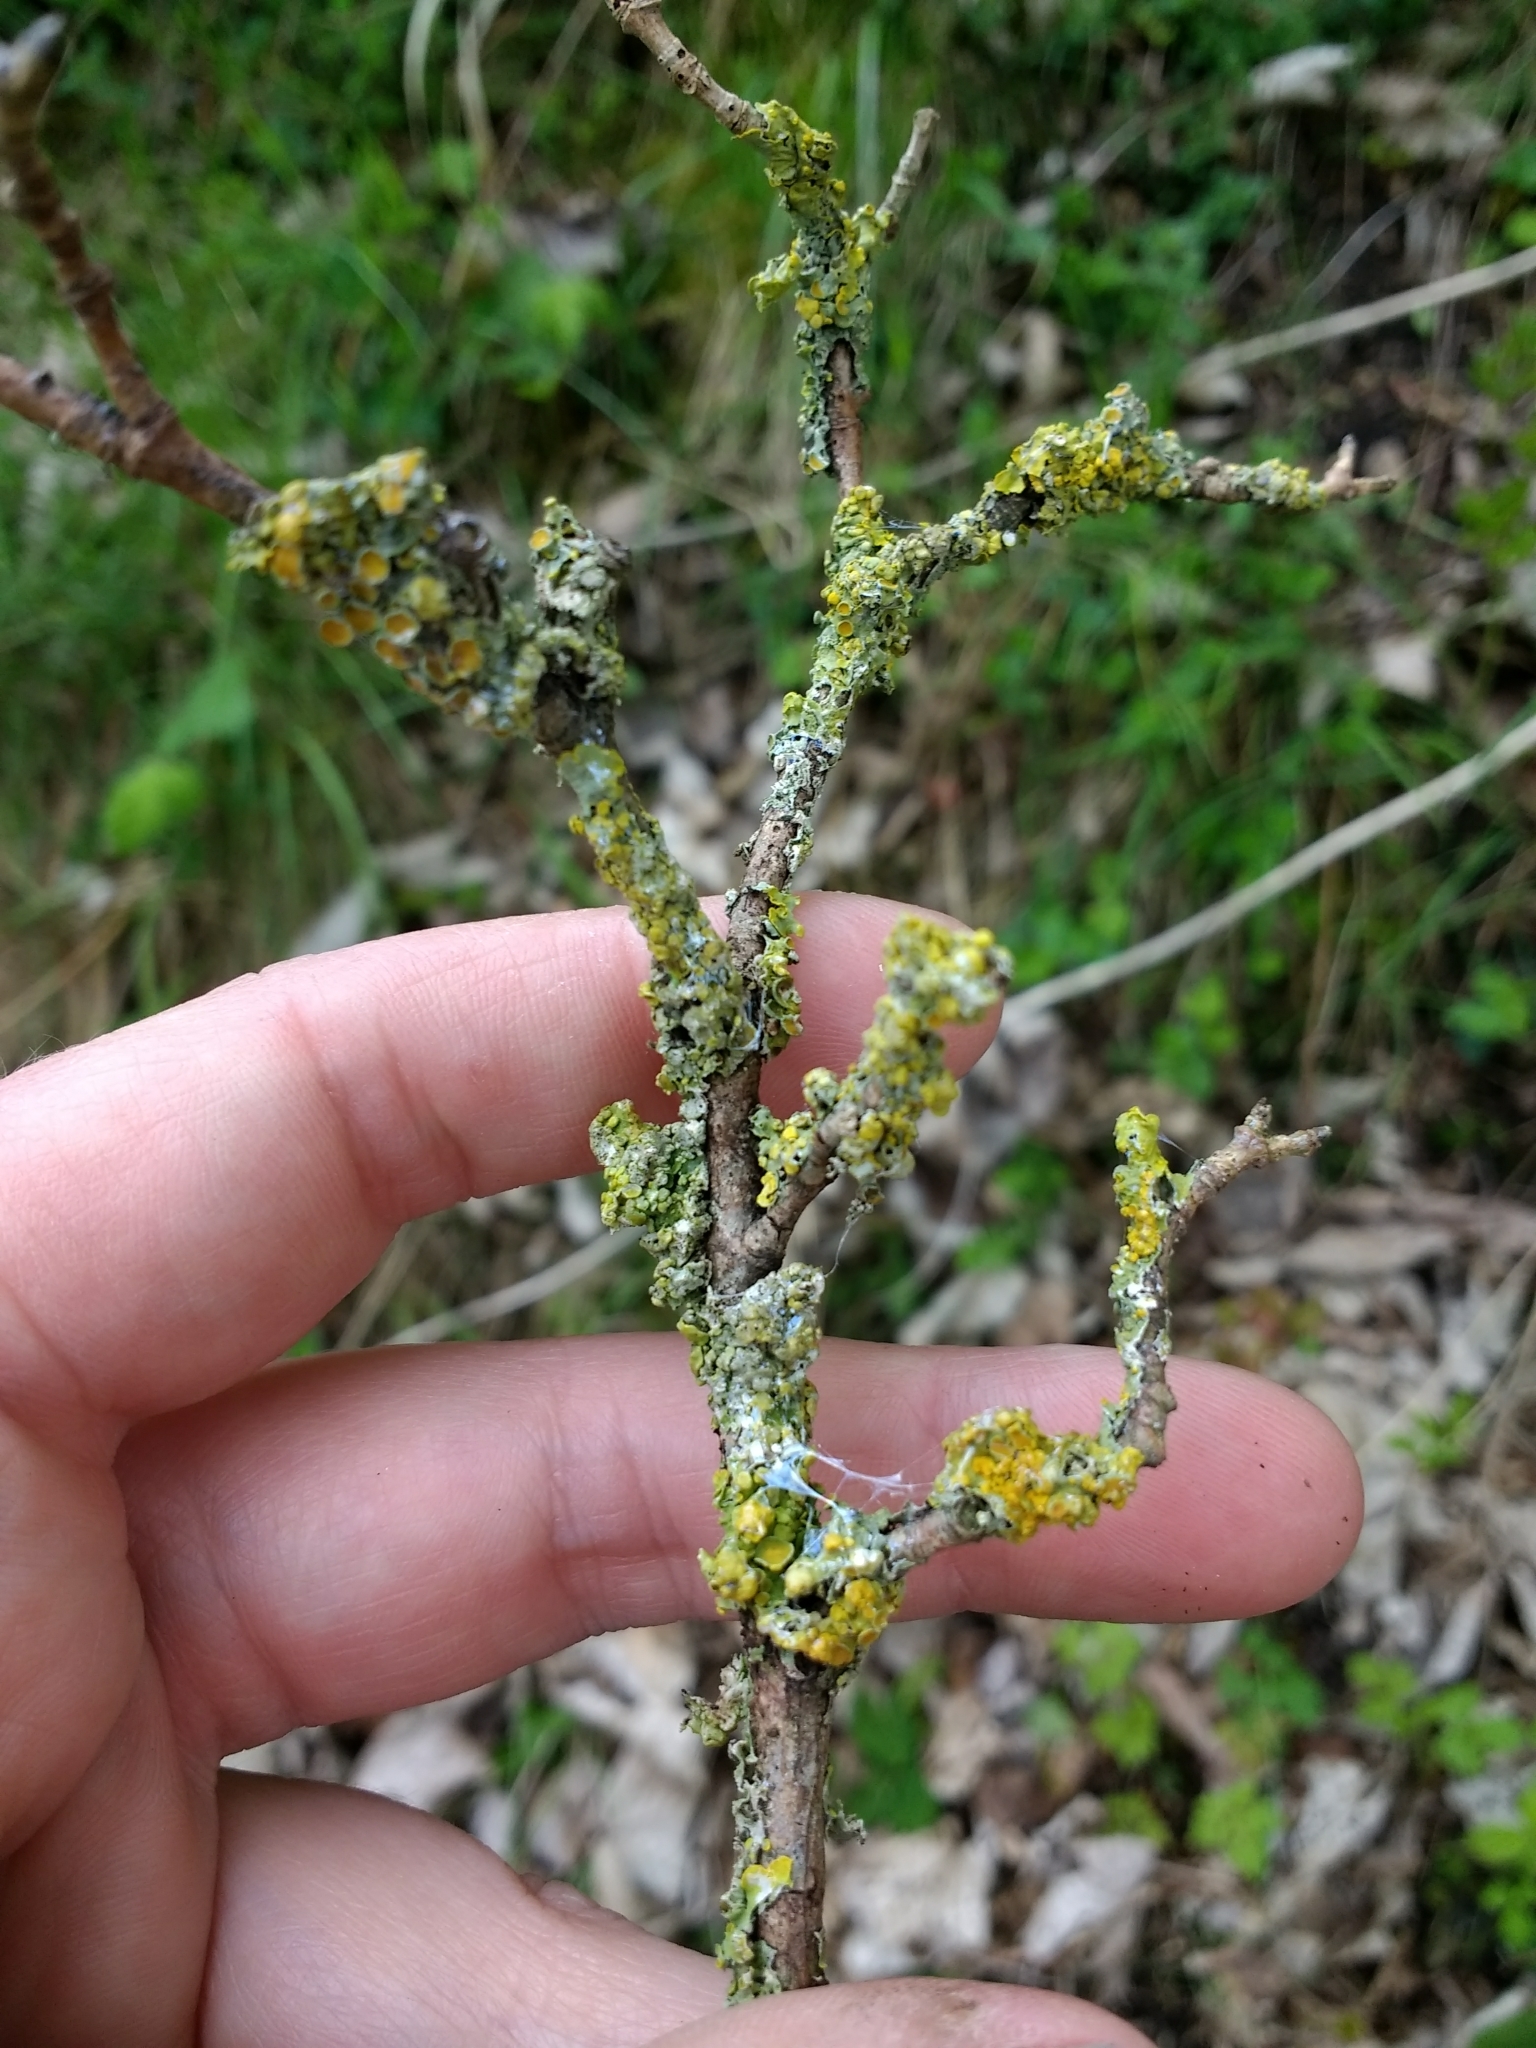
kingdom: Fungi
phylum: Ascomycota
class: Lecanoromycetes
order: Teloschistales
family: Teloschistaceae
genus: Xanthoria
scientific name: Xanthoria parietina
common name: Common orange lichen
